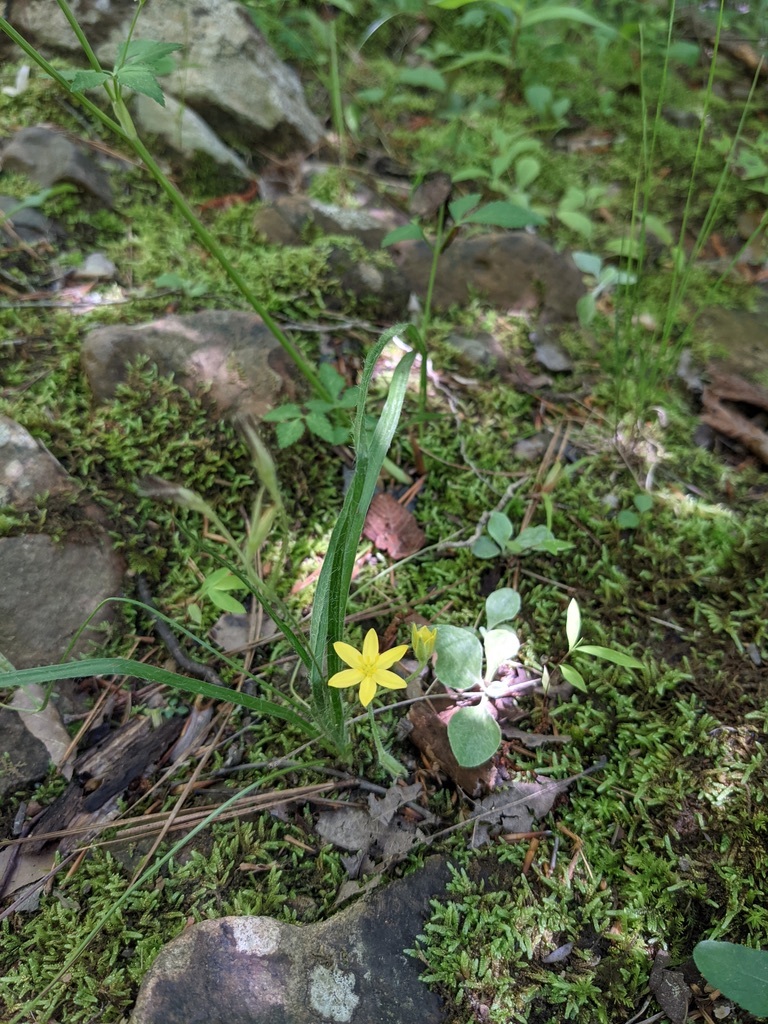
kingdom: Plantae
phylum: Tracheophyta
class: Liliopsida
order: Asparagales
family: Hypoxidaceae
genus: Hypoxis
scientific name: Hypoxis hirsuta
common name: Common goldstar
